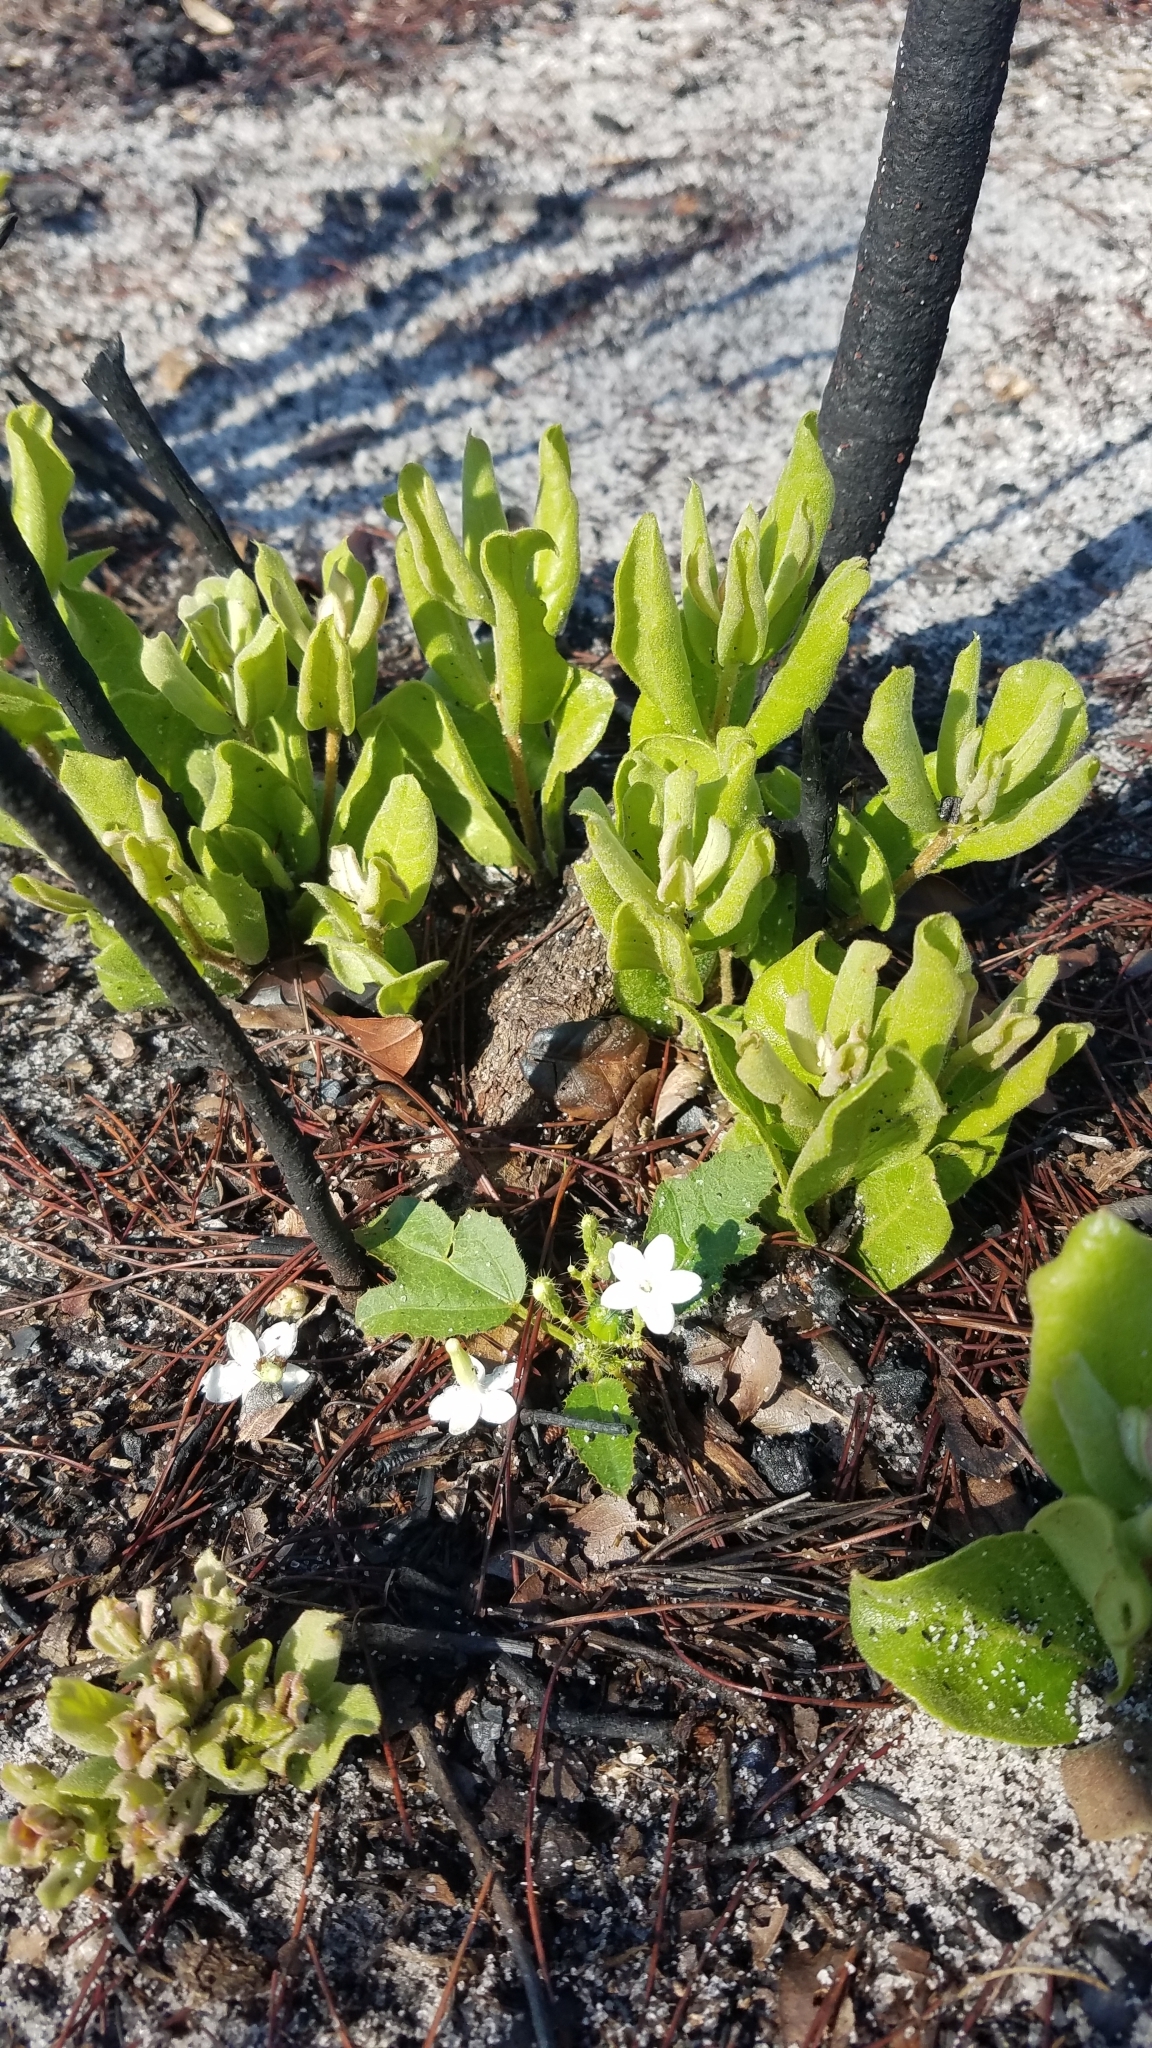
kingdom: Plantae
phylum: Tracheophyta
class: Magnoliopsida
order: Malpighiales
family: Euphorbiaceae
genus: Cnidoscolus
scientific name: Cnidoscolus stimulosus
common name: Bull-nettle
